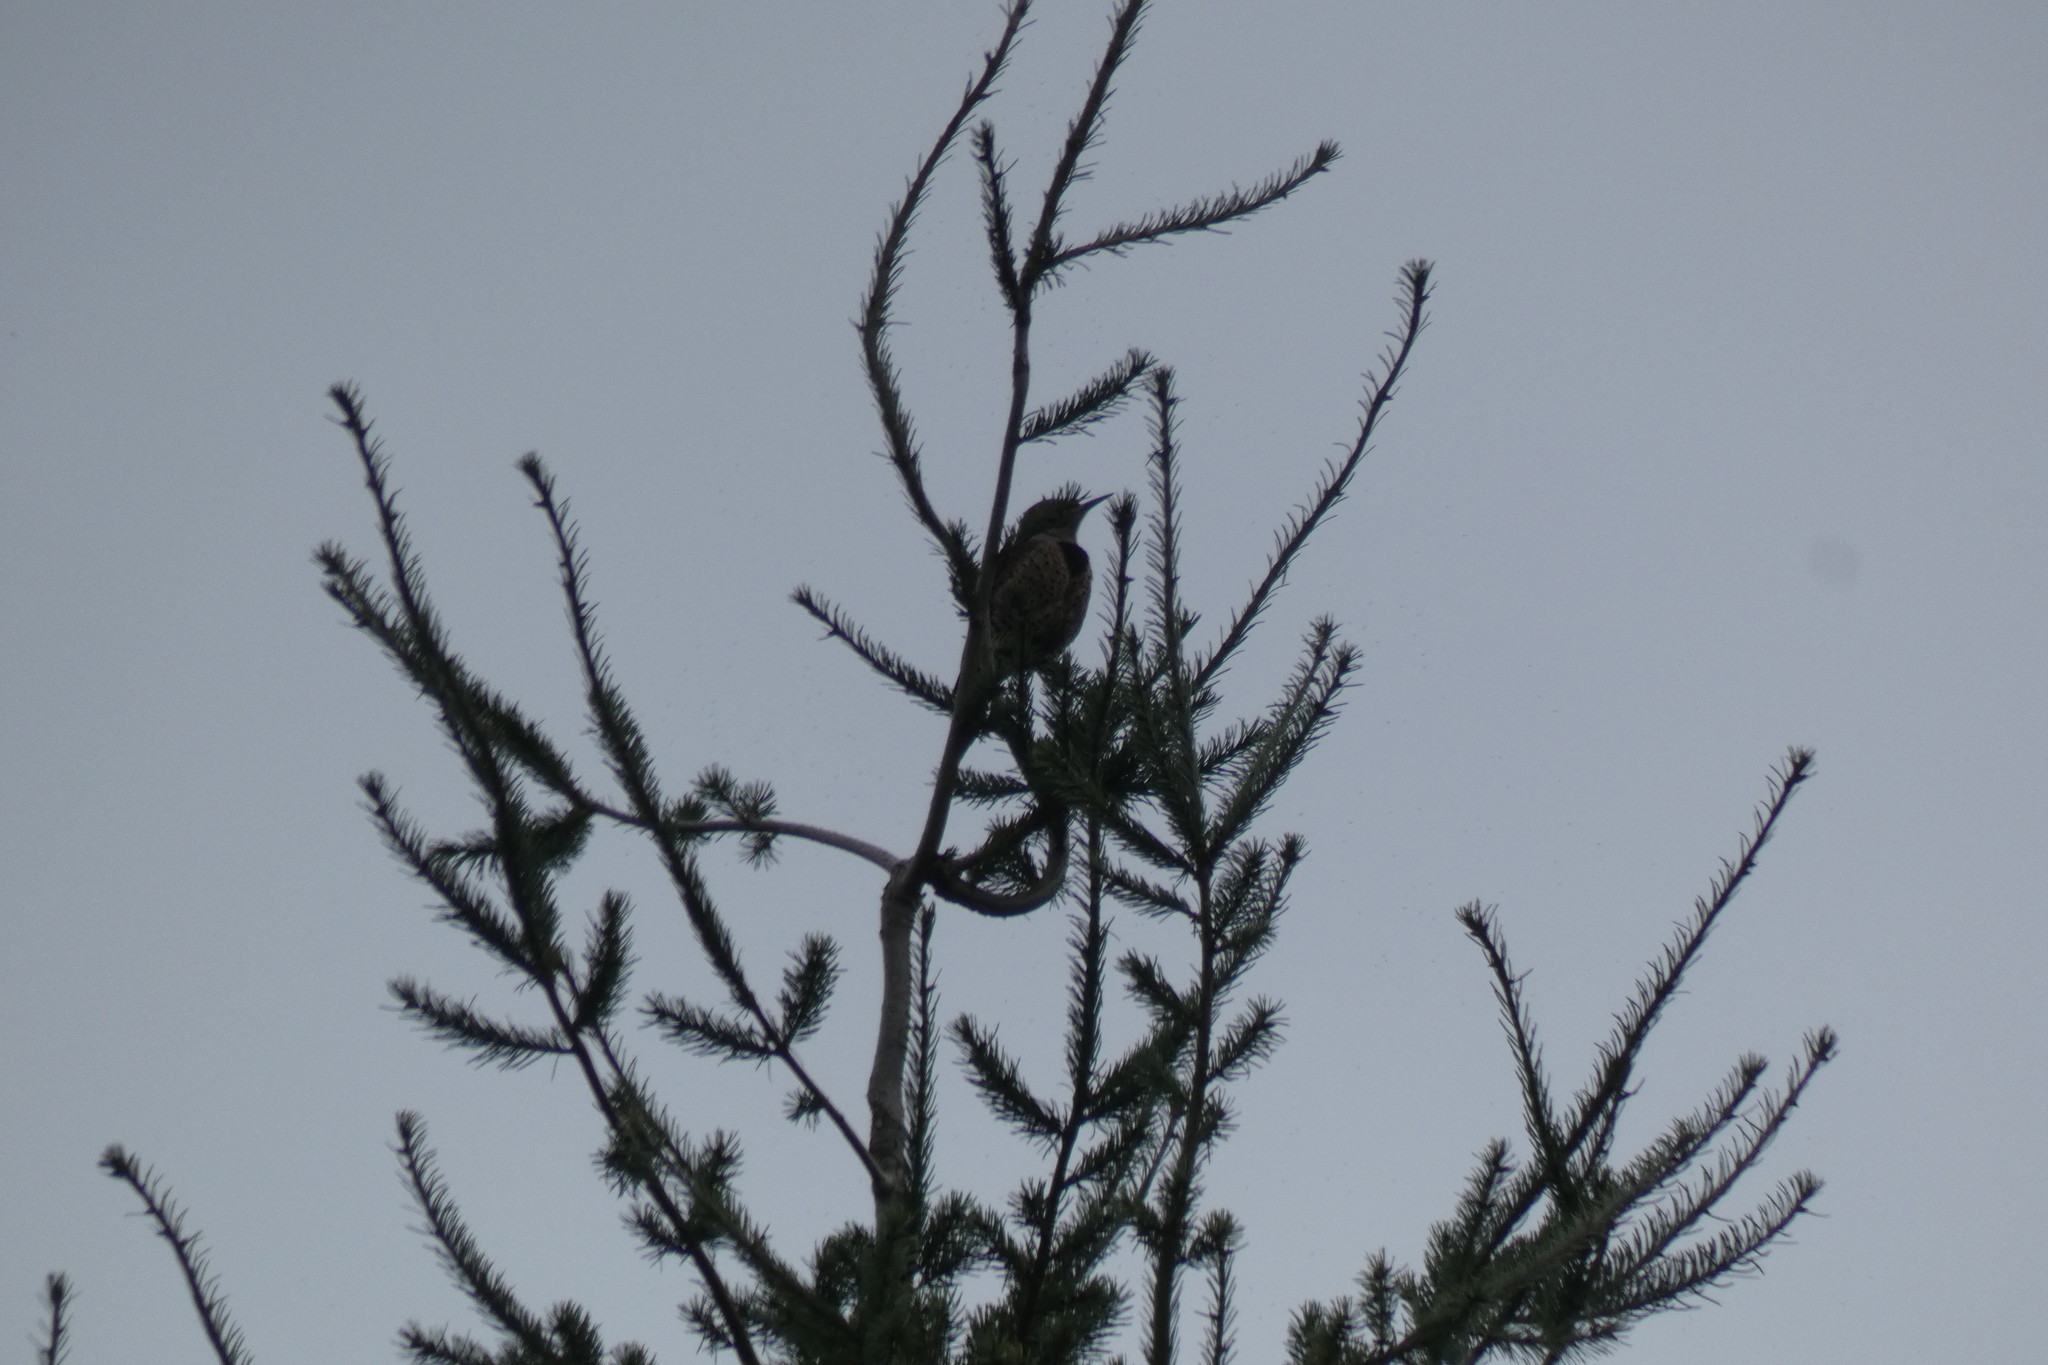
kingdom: Animalia
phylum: Chordata
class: Aves
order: Piciformes
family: Picidae
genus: Colaptes
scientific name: Colaptes auratus
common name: Northern flicker
